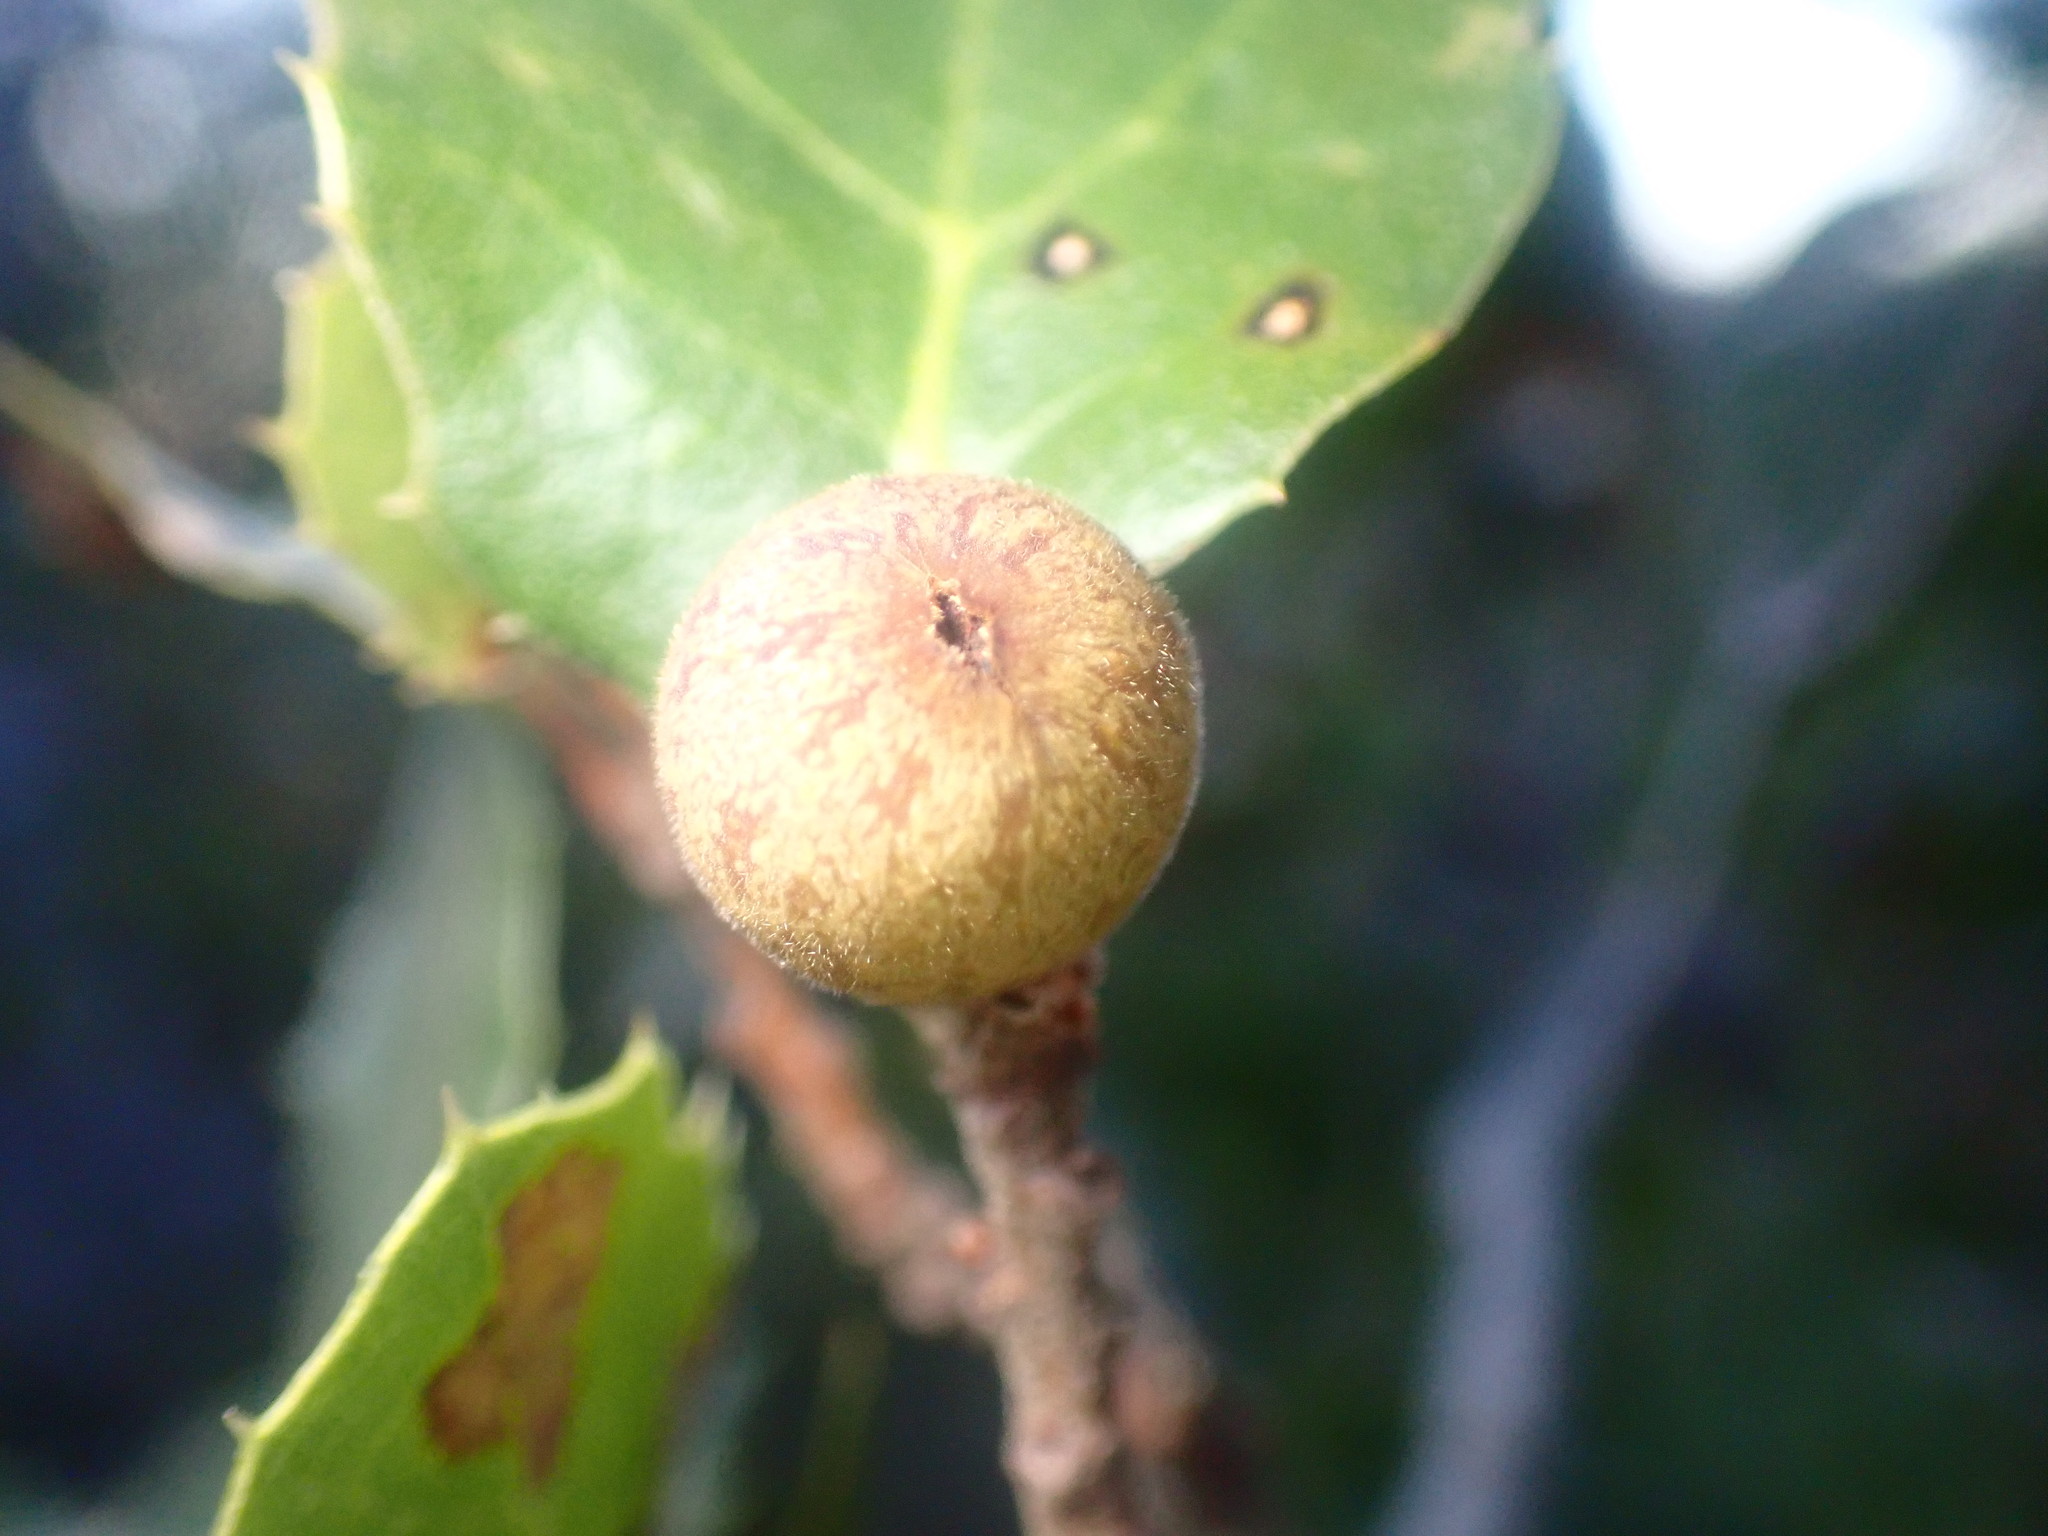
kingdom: Animalia
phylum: Arthropoda
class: Insecta
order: Hymenoptera
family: Cynipidae
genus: Callirhytis
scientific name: Callirhytis
